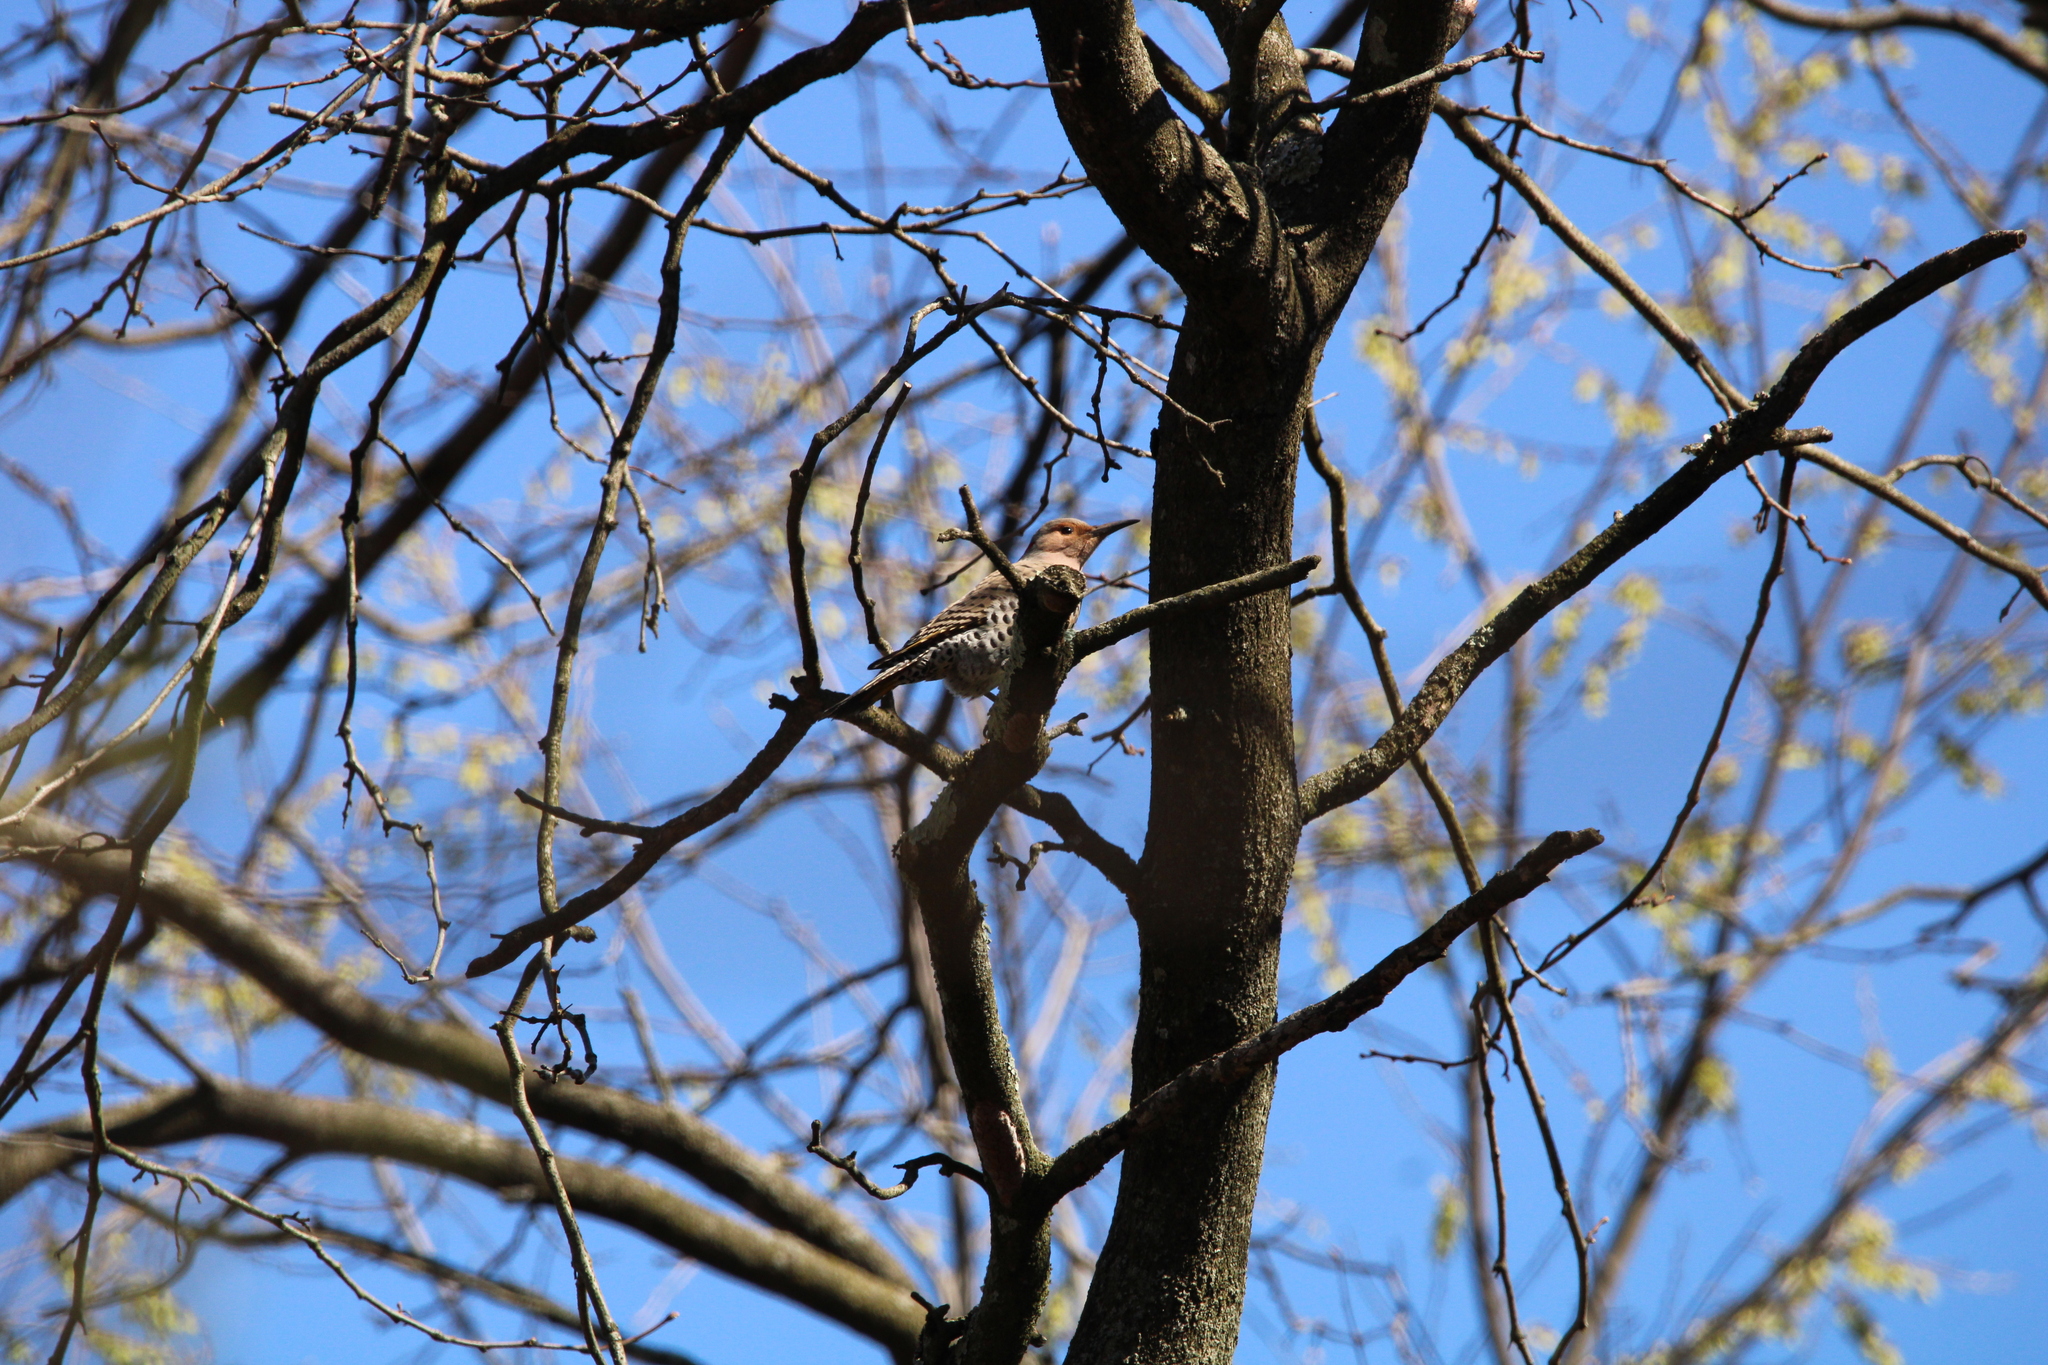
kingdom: Animalia
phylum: Chordata
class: Aves
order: Piciformes
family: Picidae
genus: Colaptes
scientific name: Colaptes auratus
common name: Northern flicker
